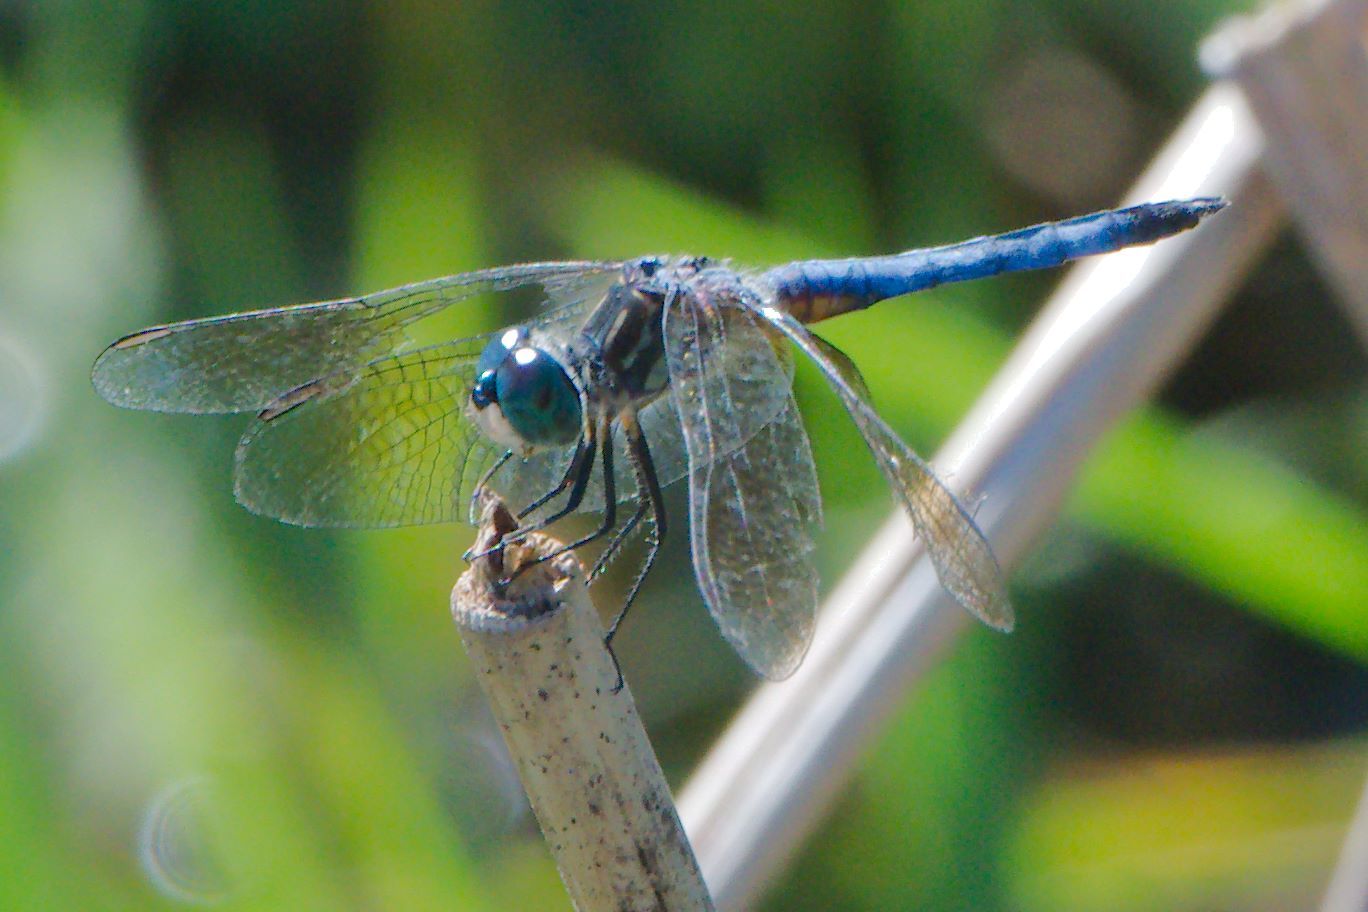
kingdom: Animalia
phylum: Arthropoda
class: Insecta
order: Odonata
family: Libellulidae
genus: Pachydiplax
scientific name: Pachydiplax longipennis
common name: Blue dasher
